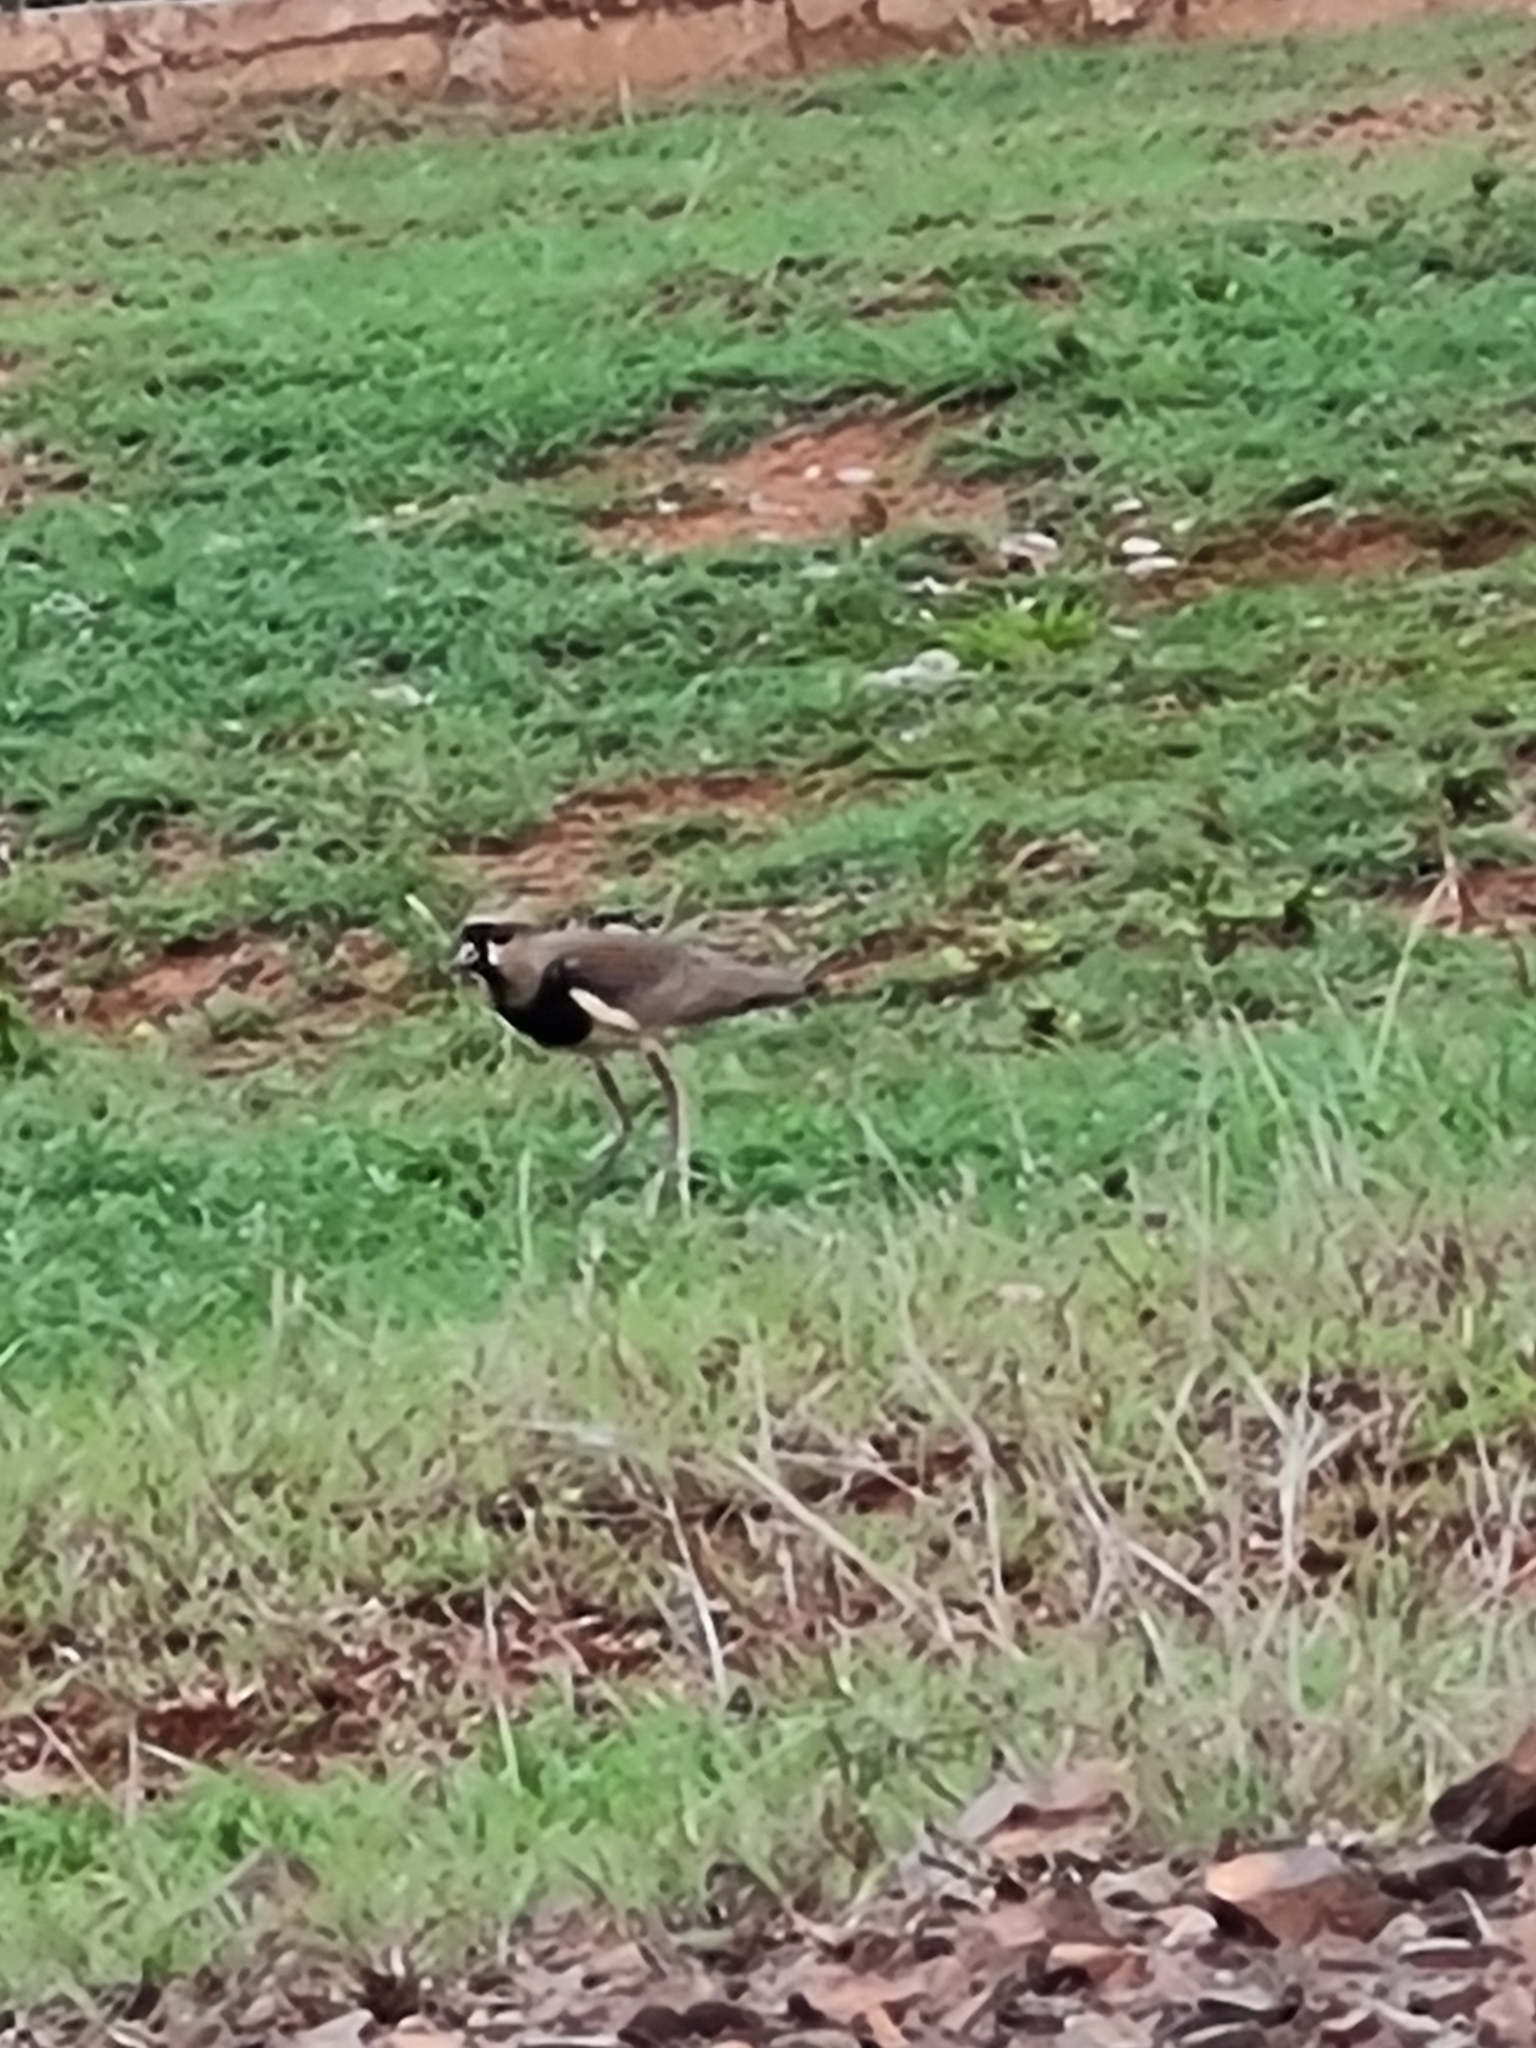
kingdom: Animalia
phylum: Chordata
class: Aves
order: Charadriiformes
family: Charadriidae
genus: Vanellus
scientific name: Vanellus chilensis
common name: Southern lapwing
